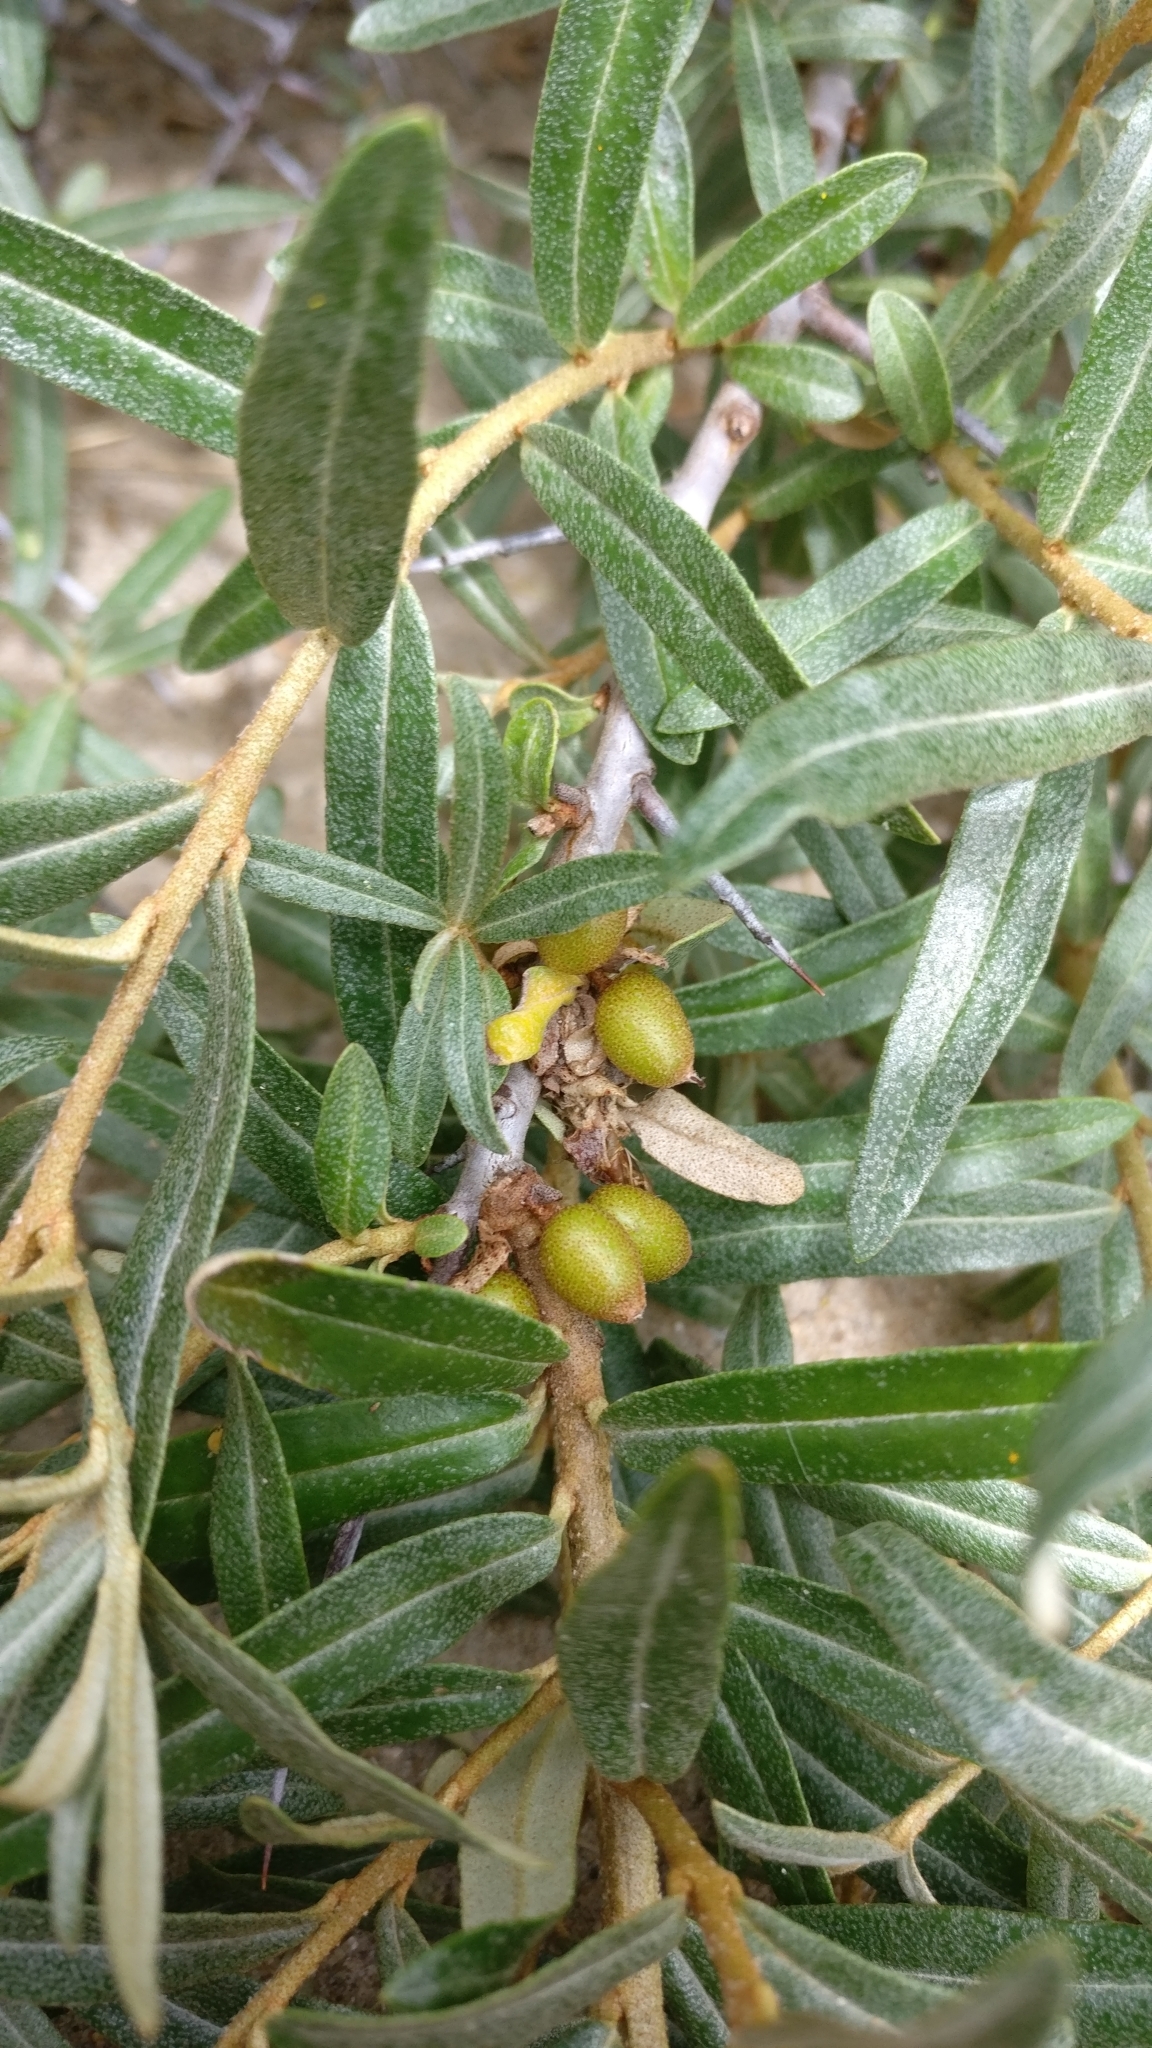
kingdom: Plantae
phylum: Tracheophyta
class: Magnoliopsida
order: Rosales
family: Elaeagnaceae
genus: Hippophae
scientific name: Hippophae rhamnoides
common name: Sea-buckthorn
